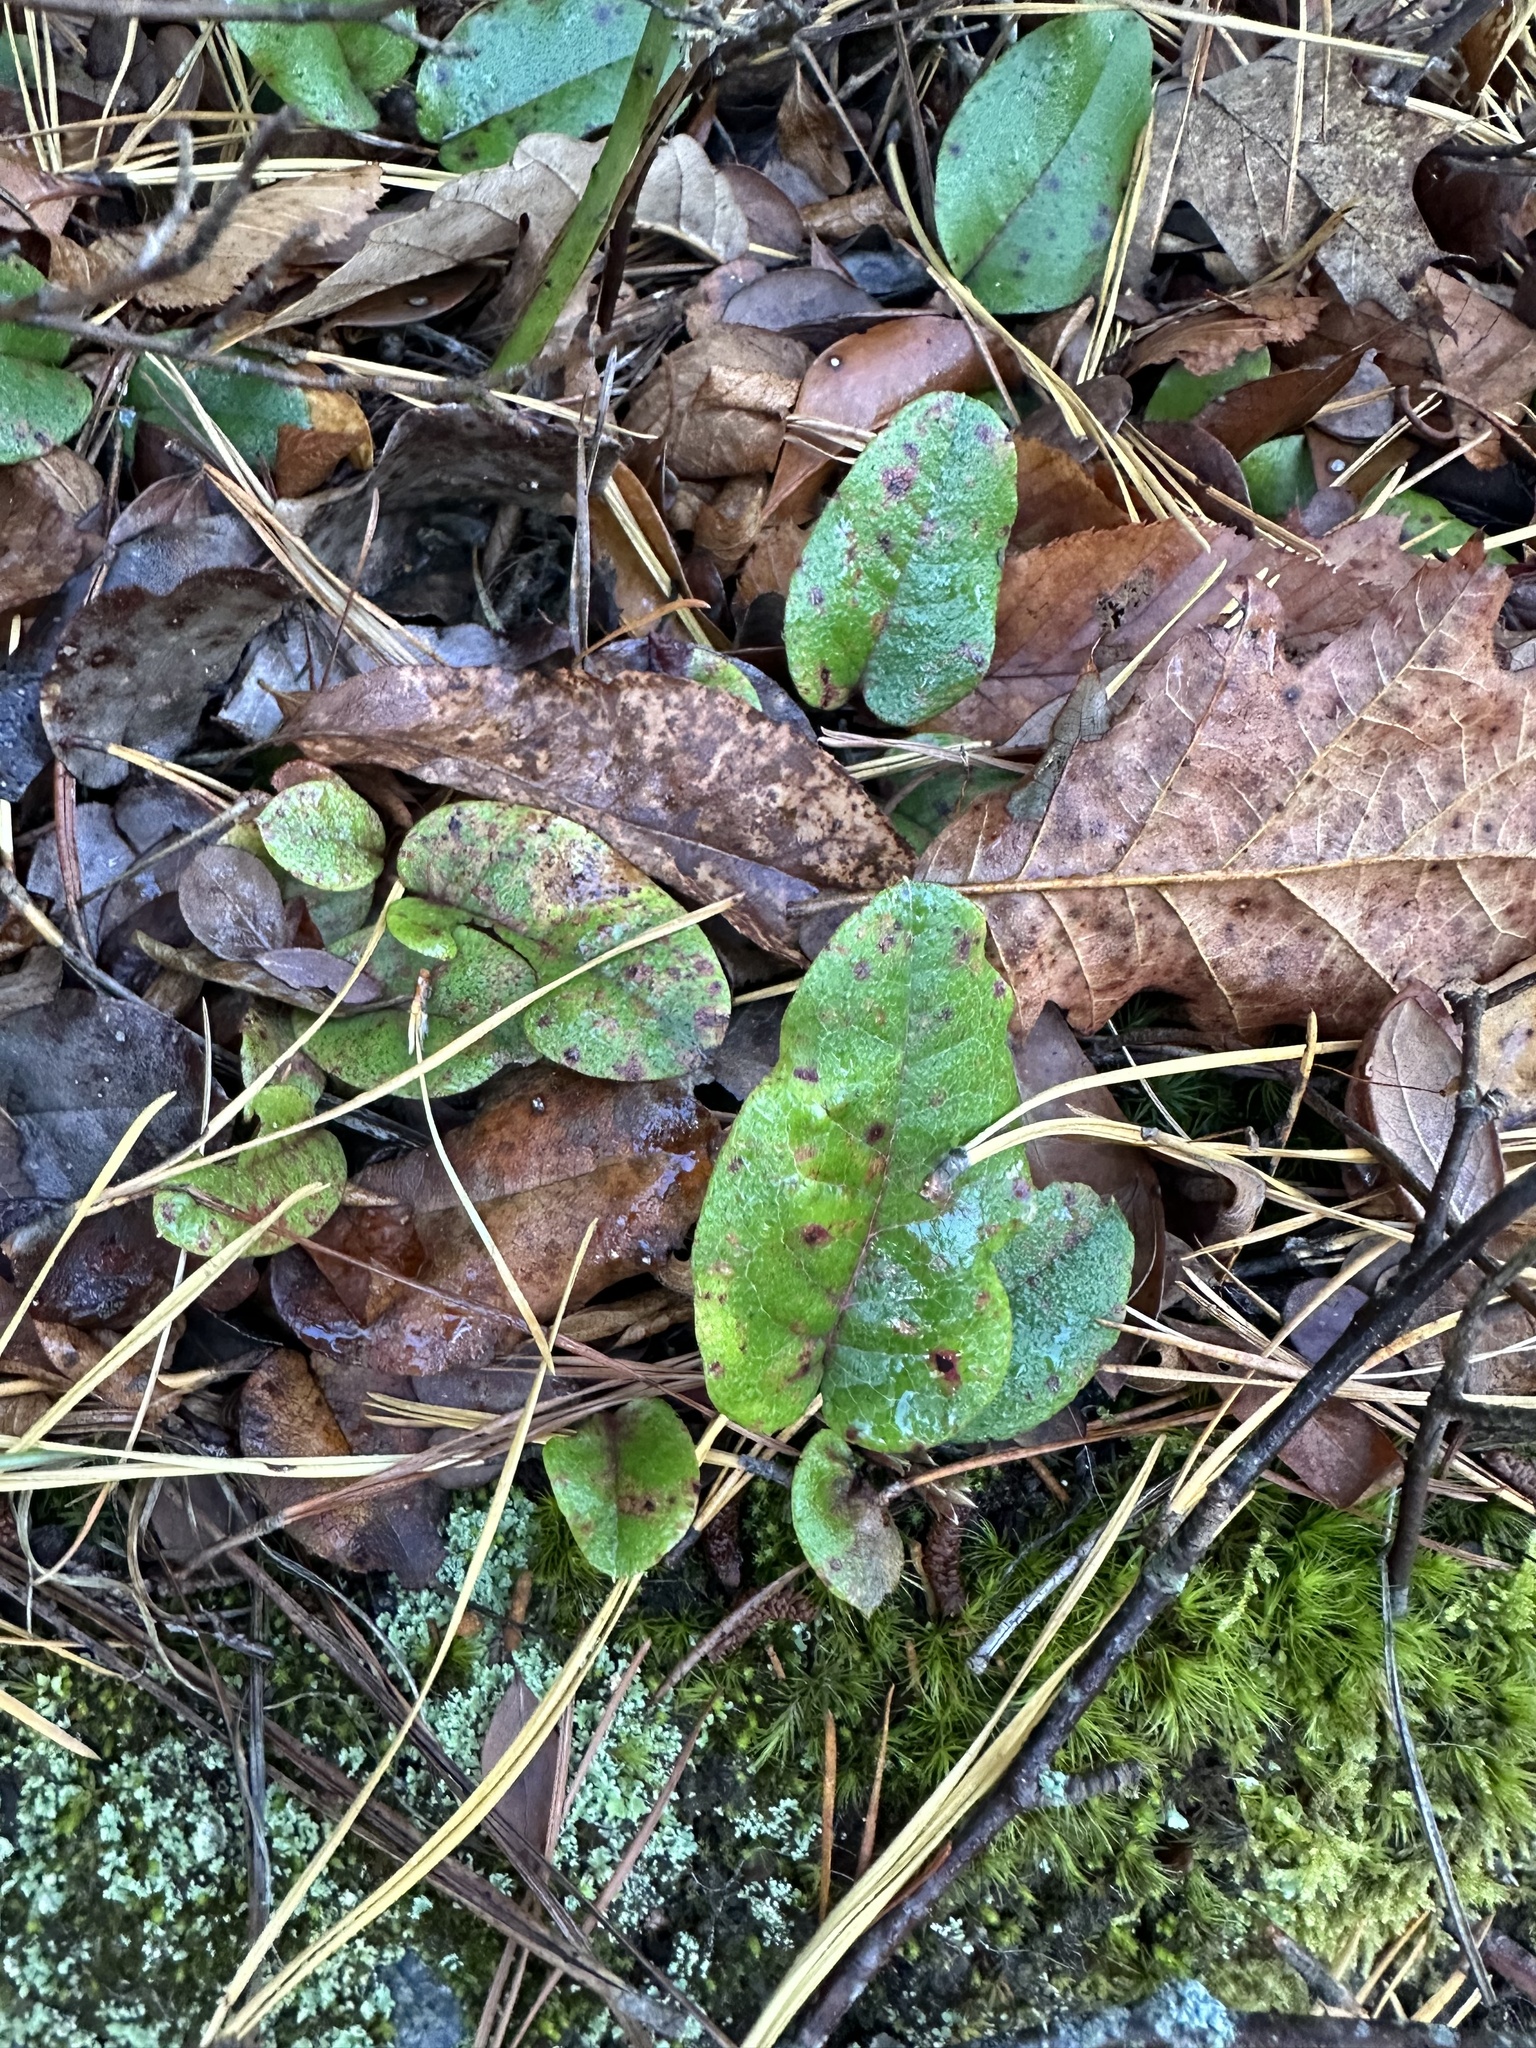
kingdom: Plantae
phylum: Tracheophyta
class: Magnoliopsida
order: Ericales
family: Ericaceae
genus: Epigaea
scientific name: Epigaea repens
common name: Gravelroot
